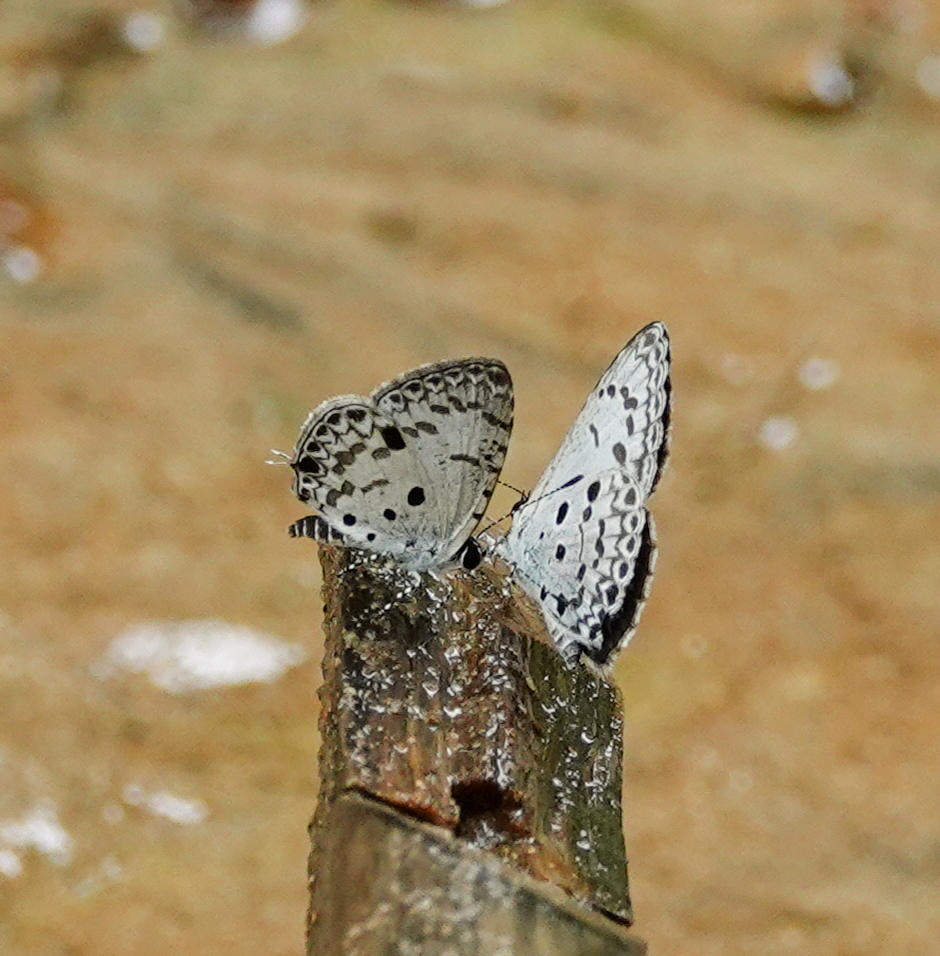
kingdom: Animalia
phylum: Arthropoda
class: Insecta
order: Lepidoptera
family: Lycaenidae
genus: Megisba
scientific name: Megisba malaya
